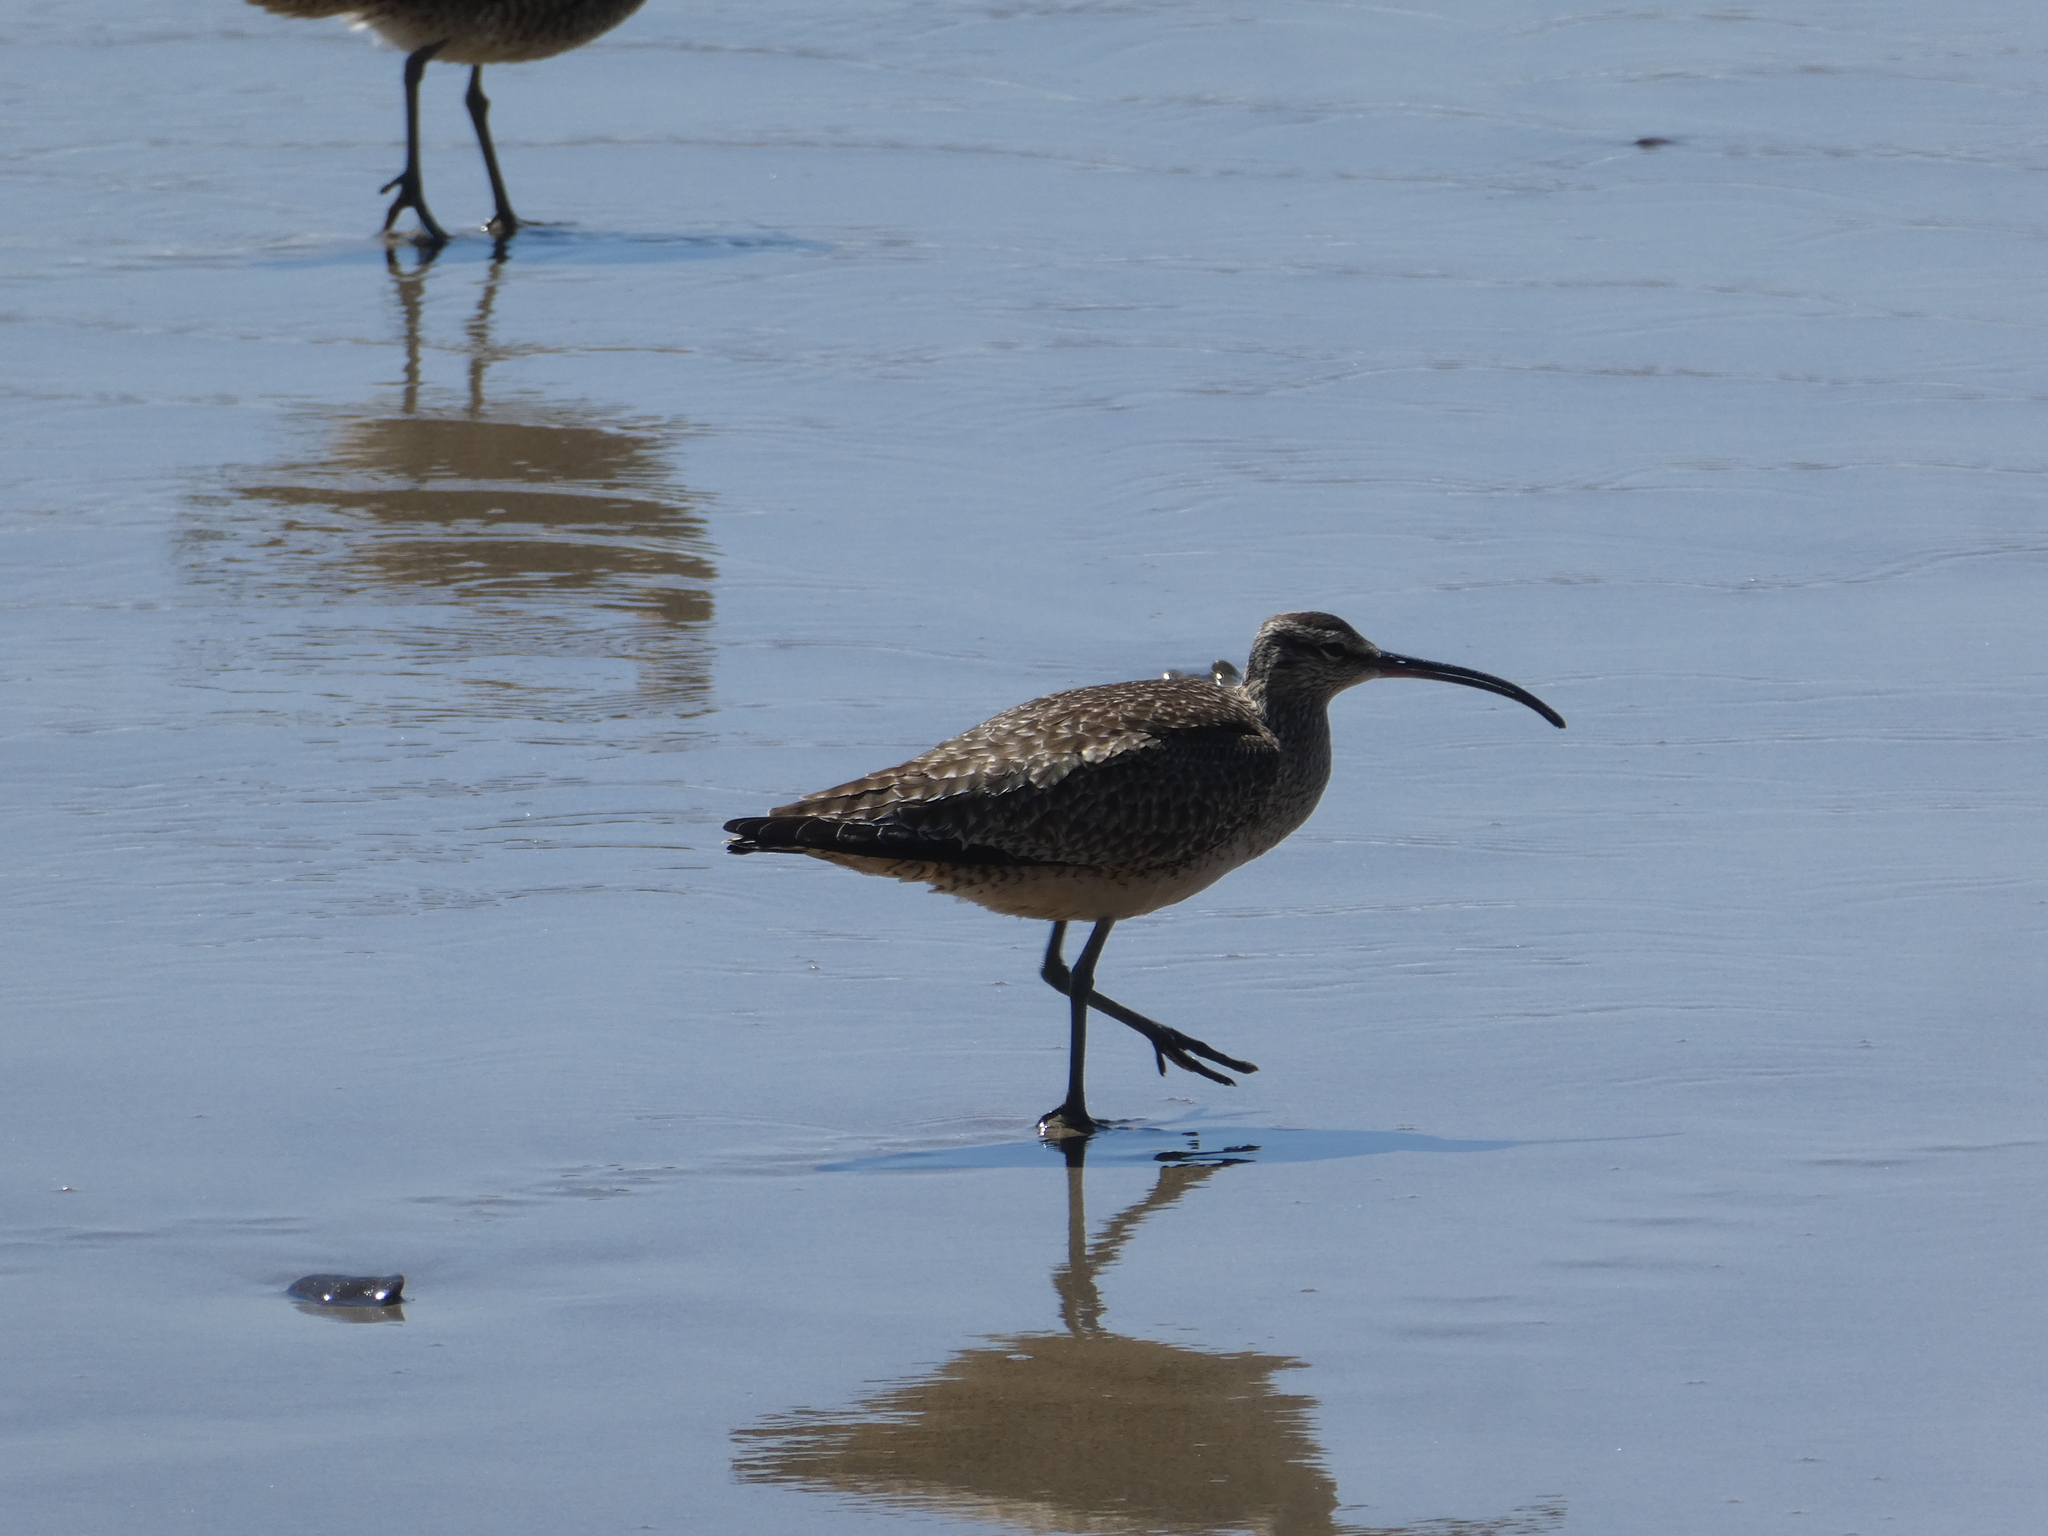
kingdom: Animalia
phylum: Chordata
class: Aves
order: Charadriiformes
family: Scolopacidae
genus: Numenius
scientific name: Numenius phaeopus
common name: Whimbrel
